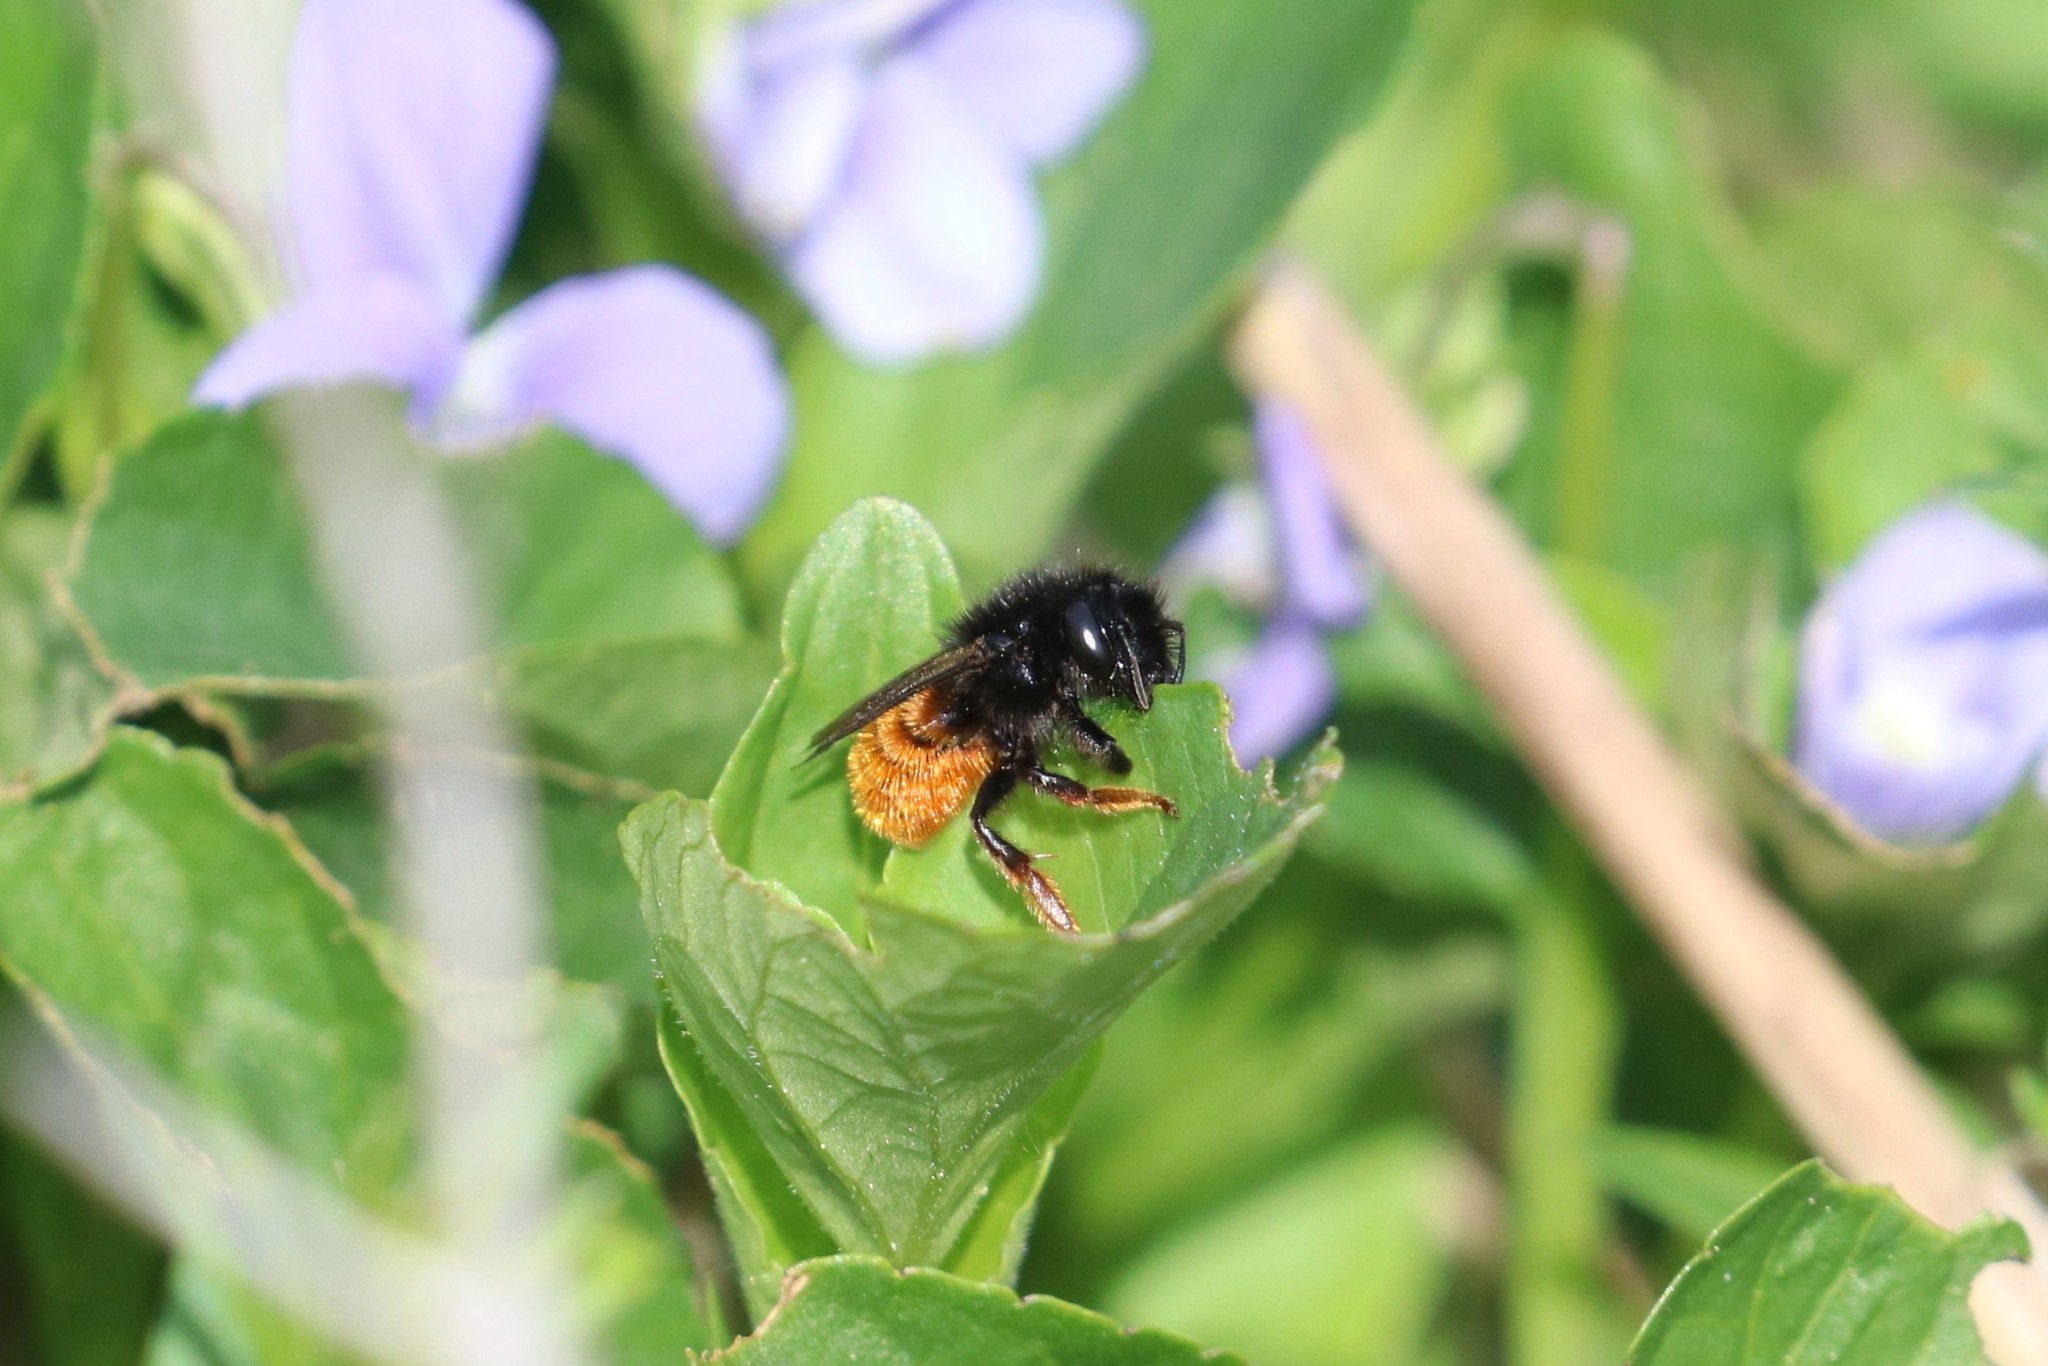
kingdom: Animalia
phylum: Arthropoda
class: Insecta
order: Hymenoptera
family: Megachilidae
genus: Osmia
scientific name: Osmia bicolor
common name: Red-tailed mason bee
